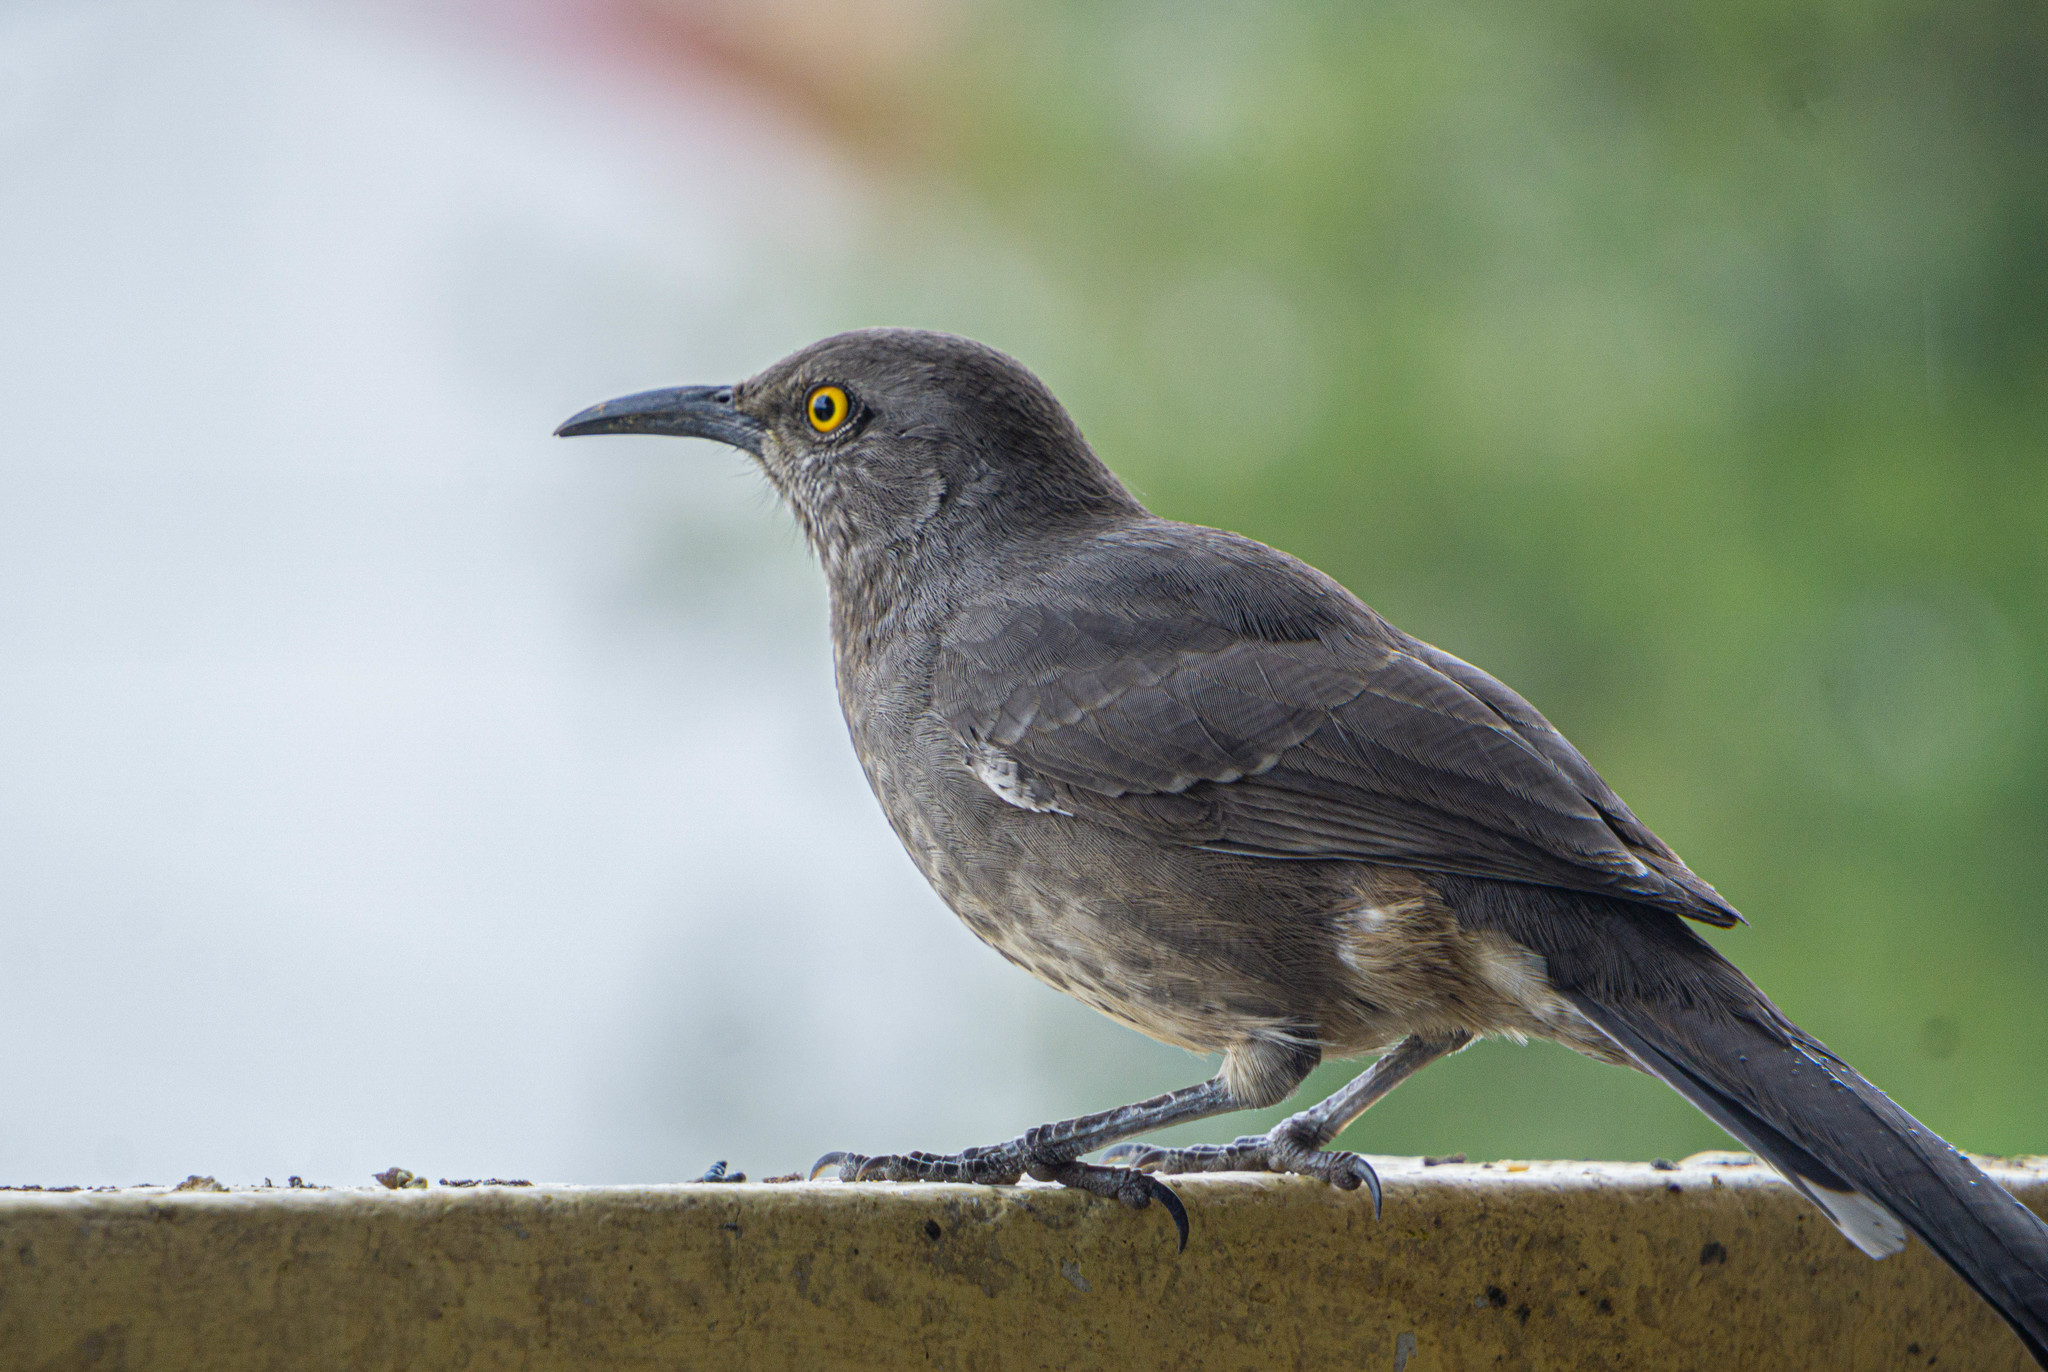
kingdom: Animalia
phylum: Chordata
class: Aves
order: Passeriformes
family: Mimidae
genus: Toxostoma
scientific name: Toxostoma curvirostre
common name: Curve-billed thrasher
